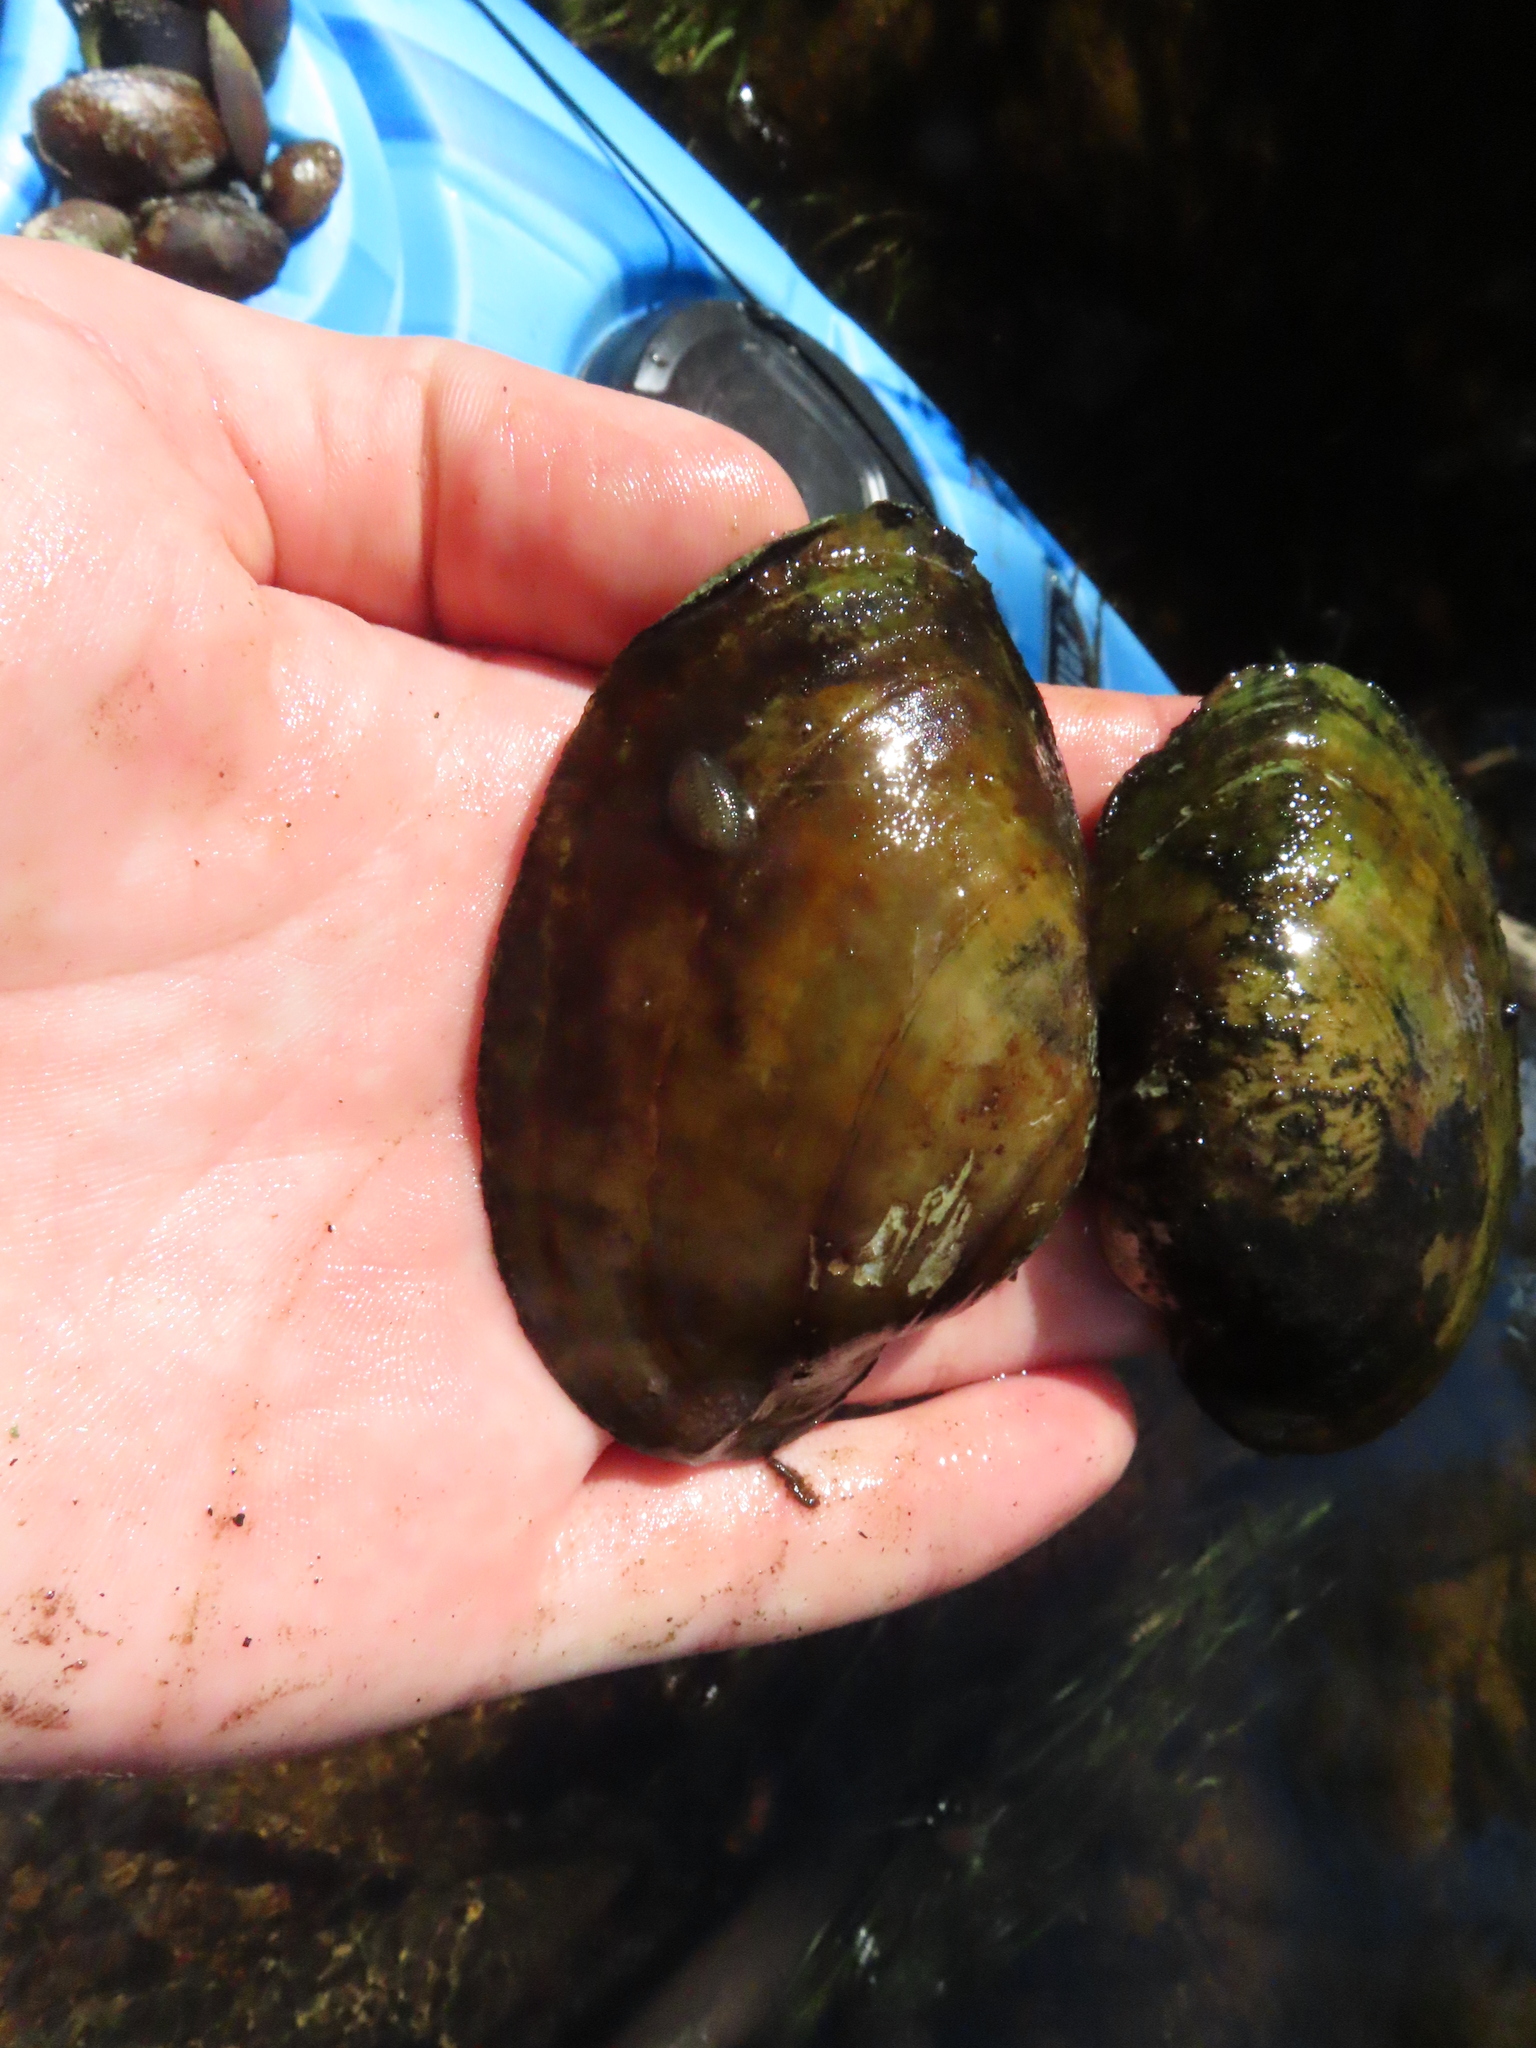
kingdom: Animalia
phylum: Mollusca
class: Bivalvia
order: Unionida
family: Unionidae
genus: Lampsilis
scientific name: Lampsilis cardium
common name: Plain pocketbook
